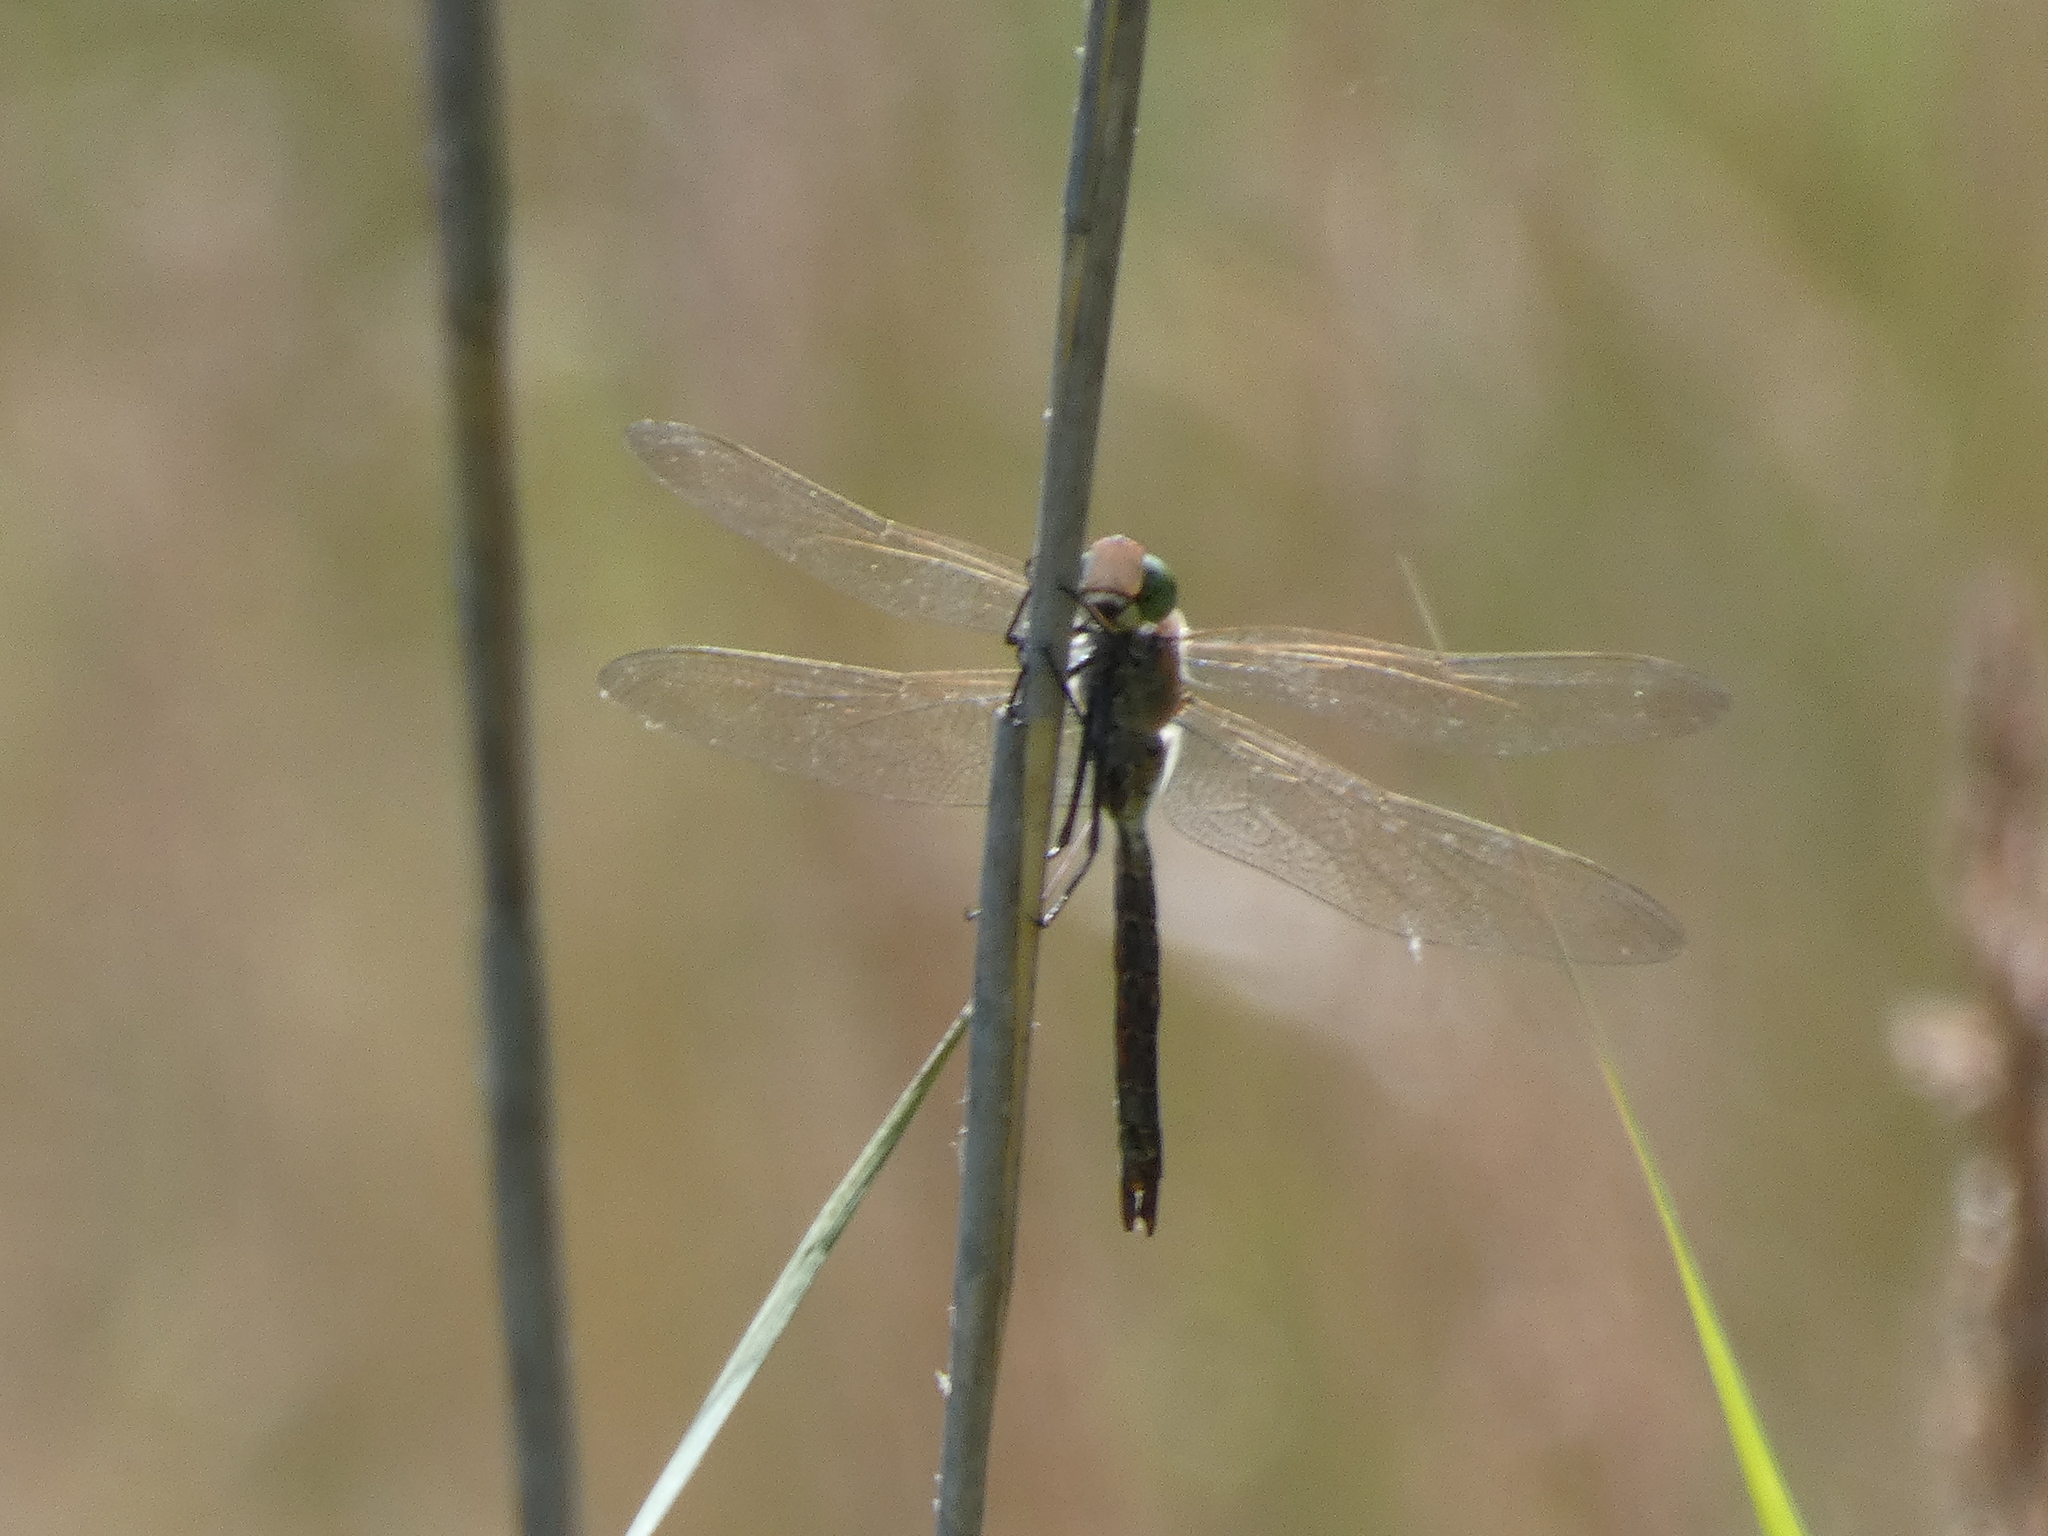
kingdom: Animalia
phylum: Arthropoda
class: Insecta
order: Odonata
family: Aeshnidae
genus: Anax
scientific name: Anax parthenope
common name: Lesser emperor
